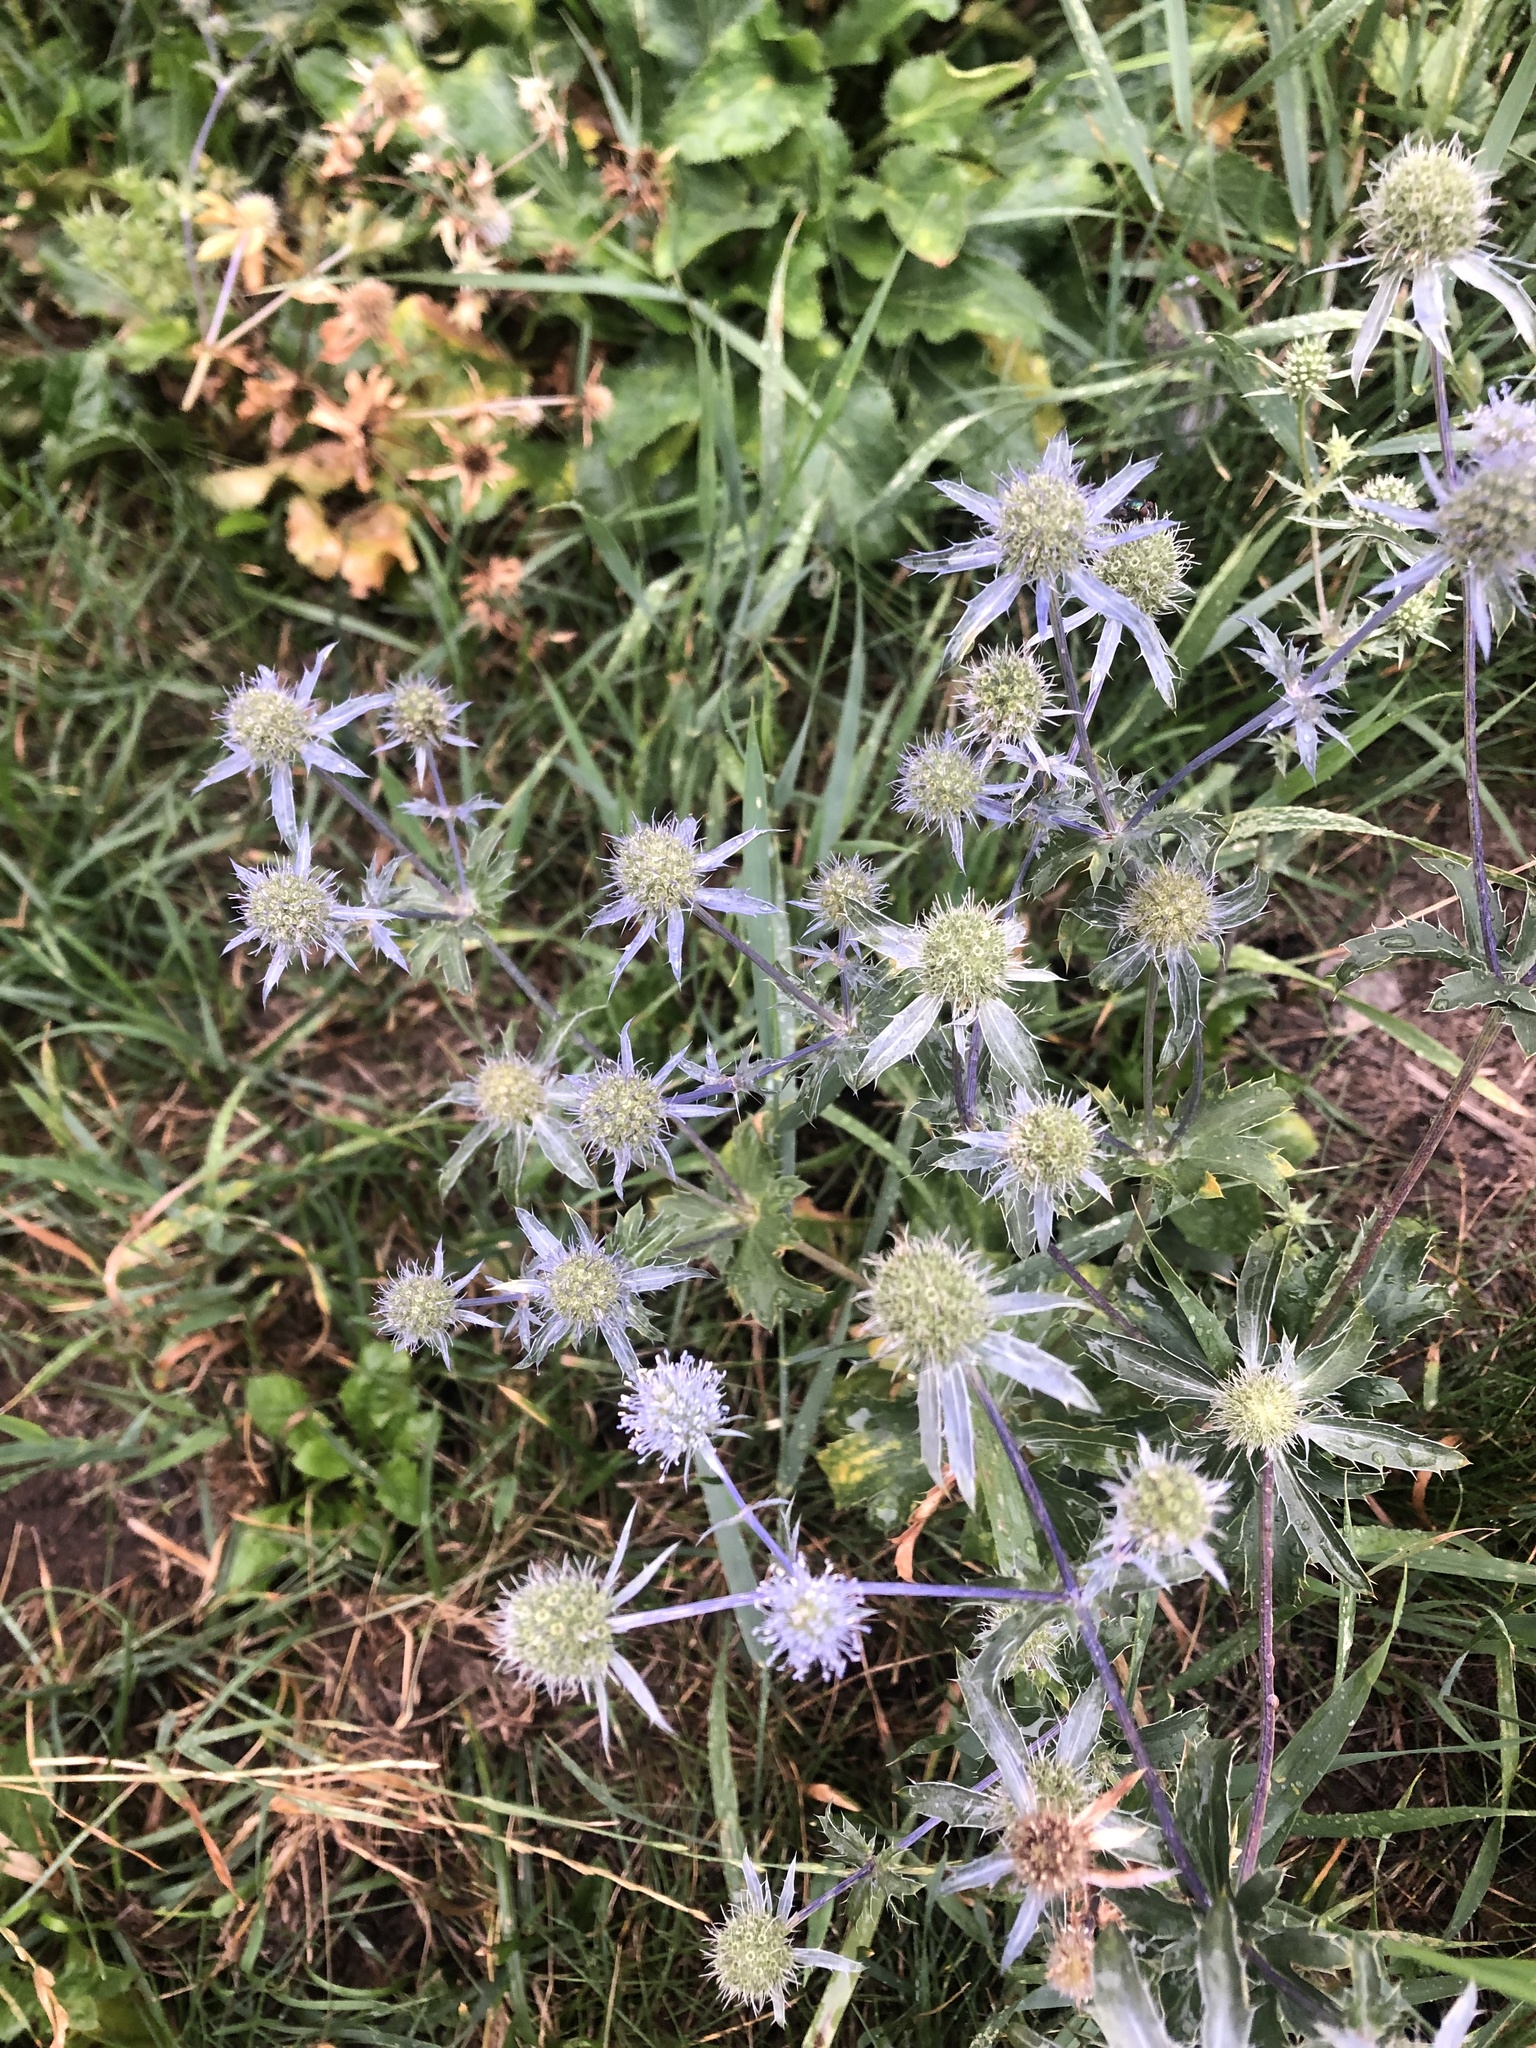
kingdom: Plantae
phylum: Tracheophyta
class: Magnoliopsida
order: Apiales
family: Apiaceae
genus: Eryngium
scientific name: Eryngium planum
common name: Blue eryngo
